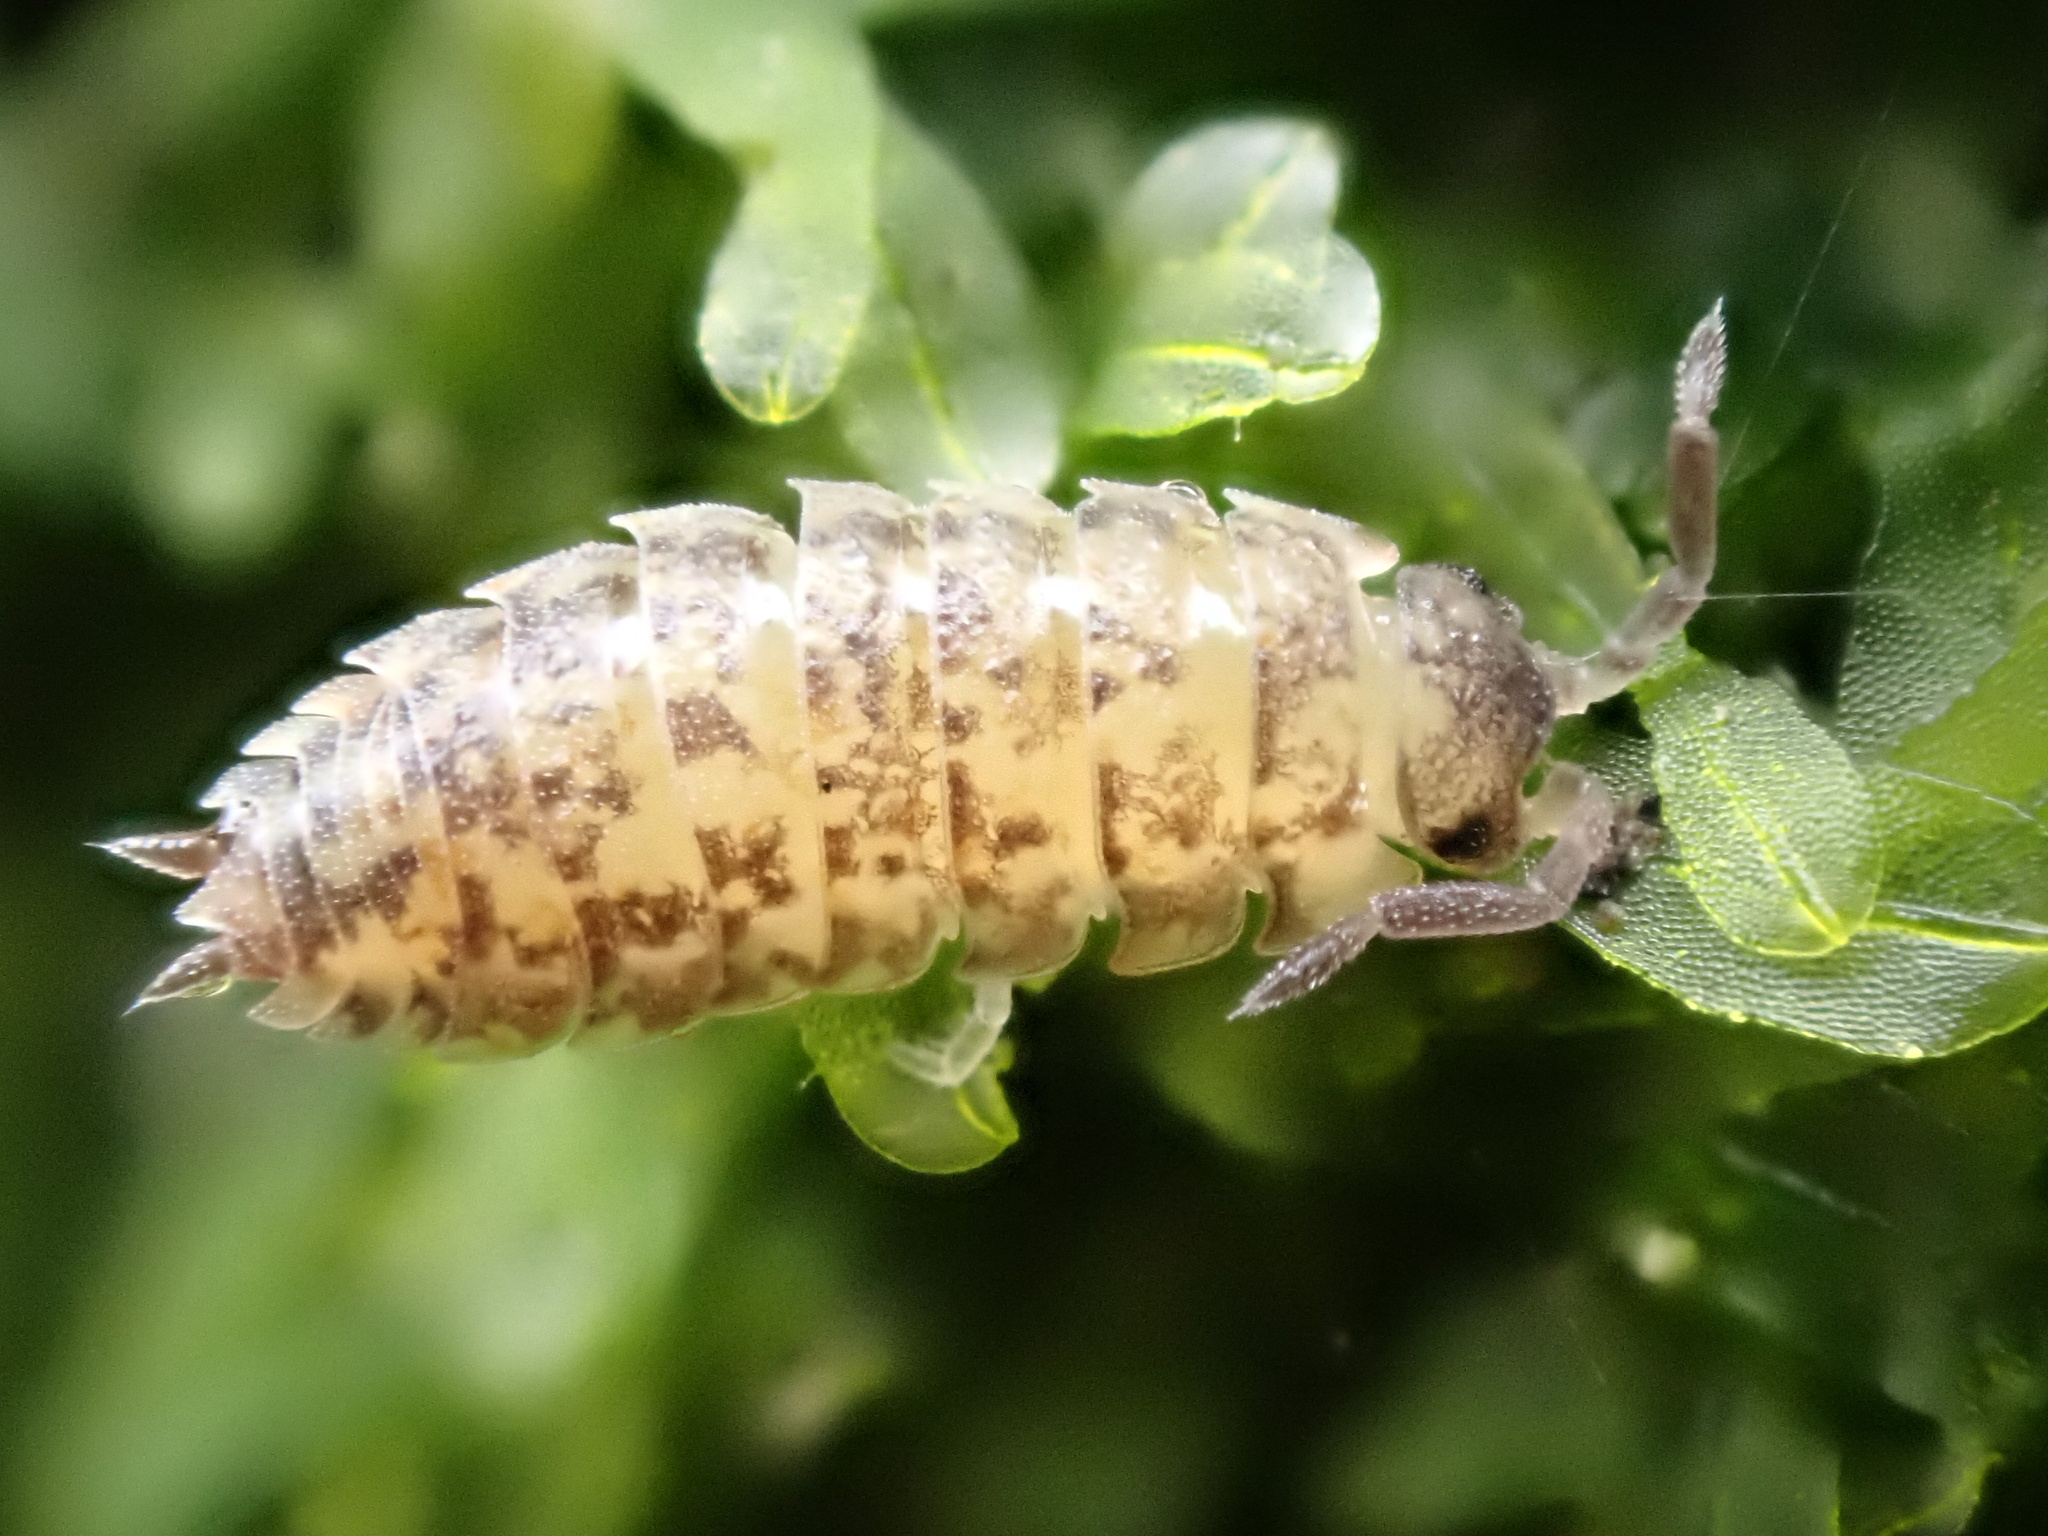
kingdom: Animalia
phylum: Arthropoda
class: Malacostraca
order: Isopoda
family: Porcellionidae
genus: Porcellio
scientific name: Porcellio scaber
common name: Common rough woodlouse
